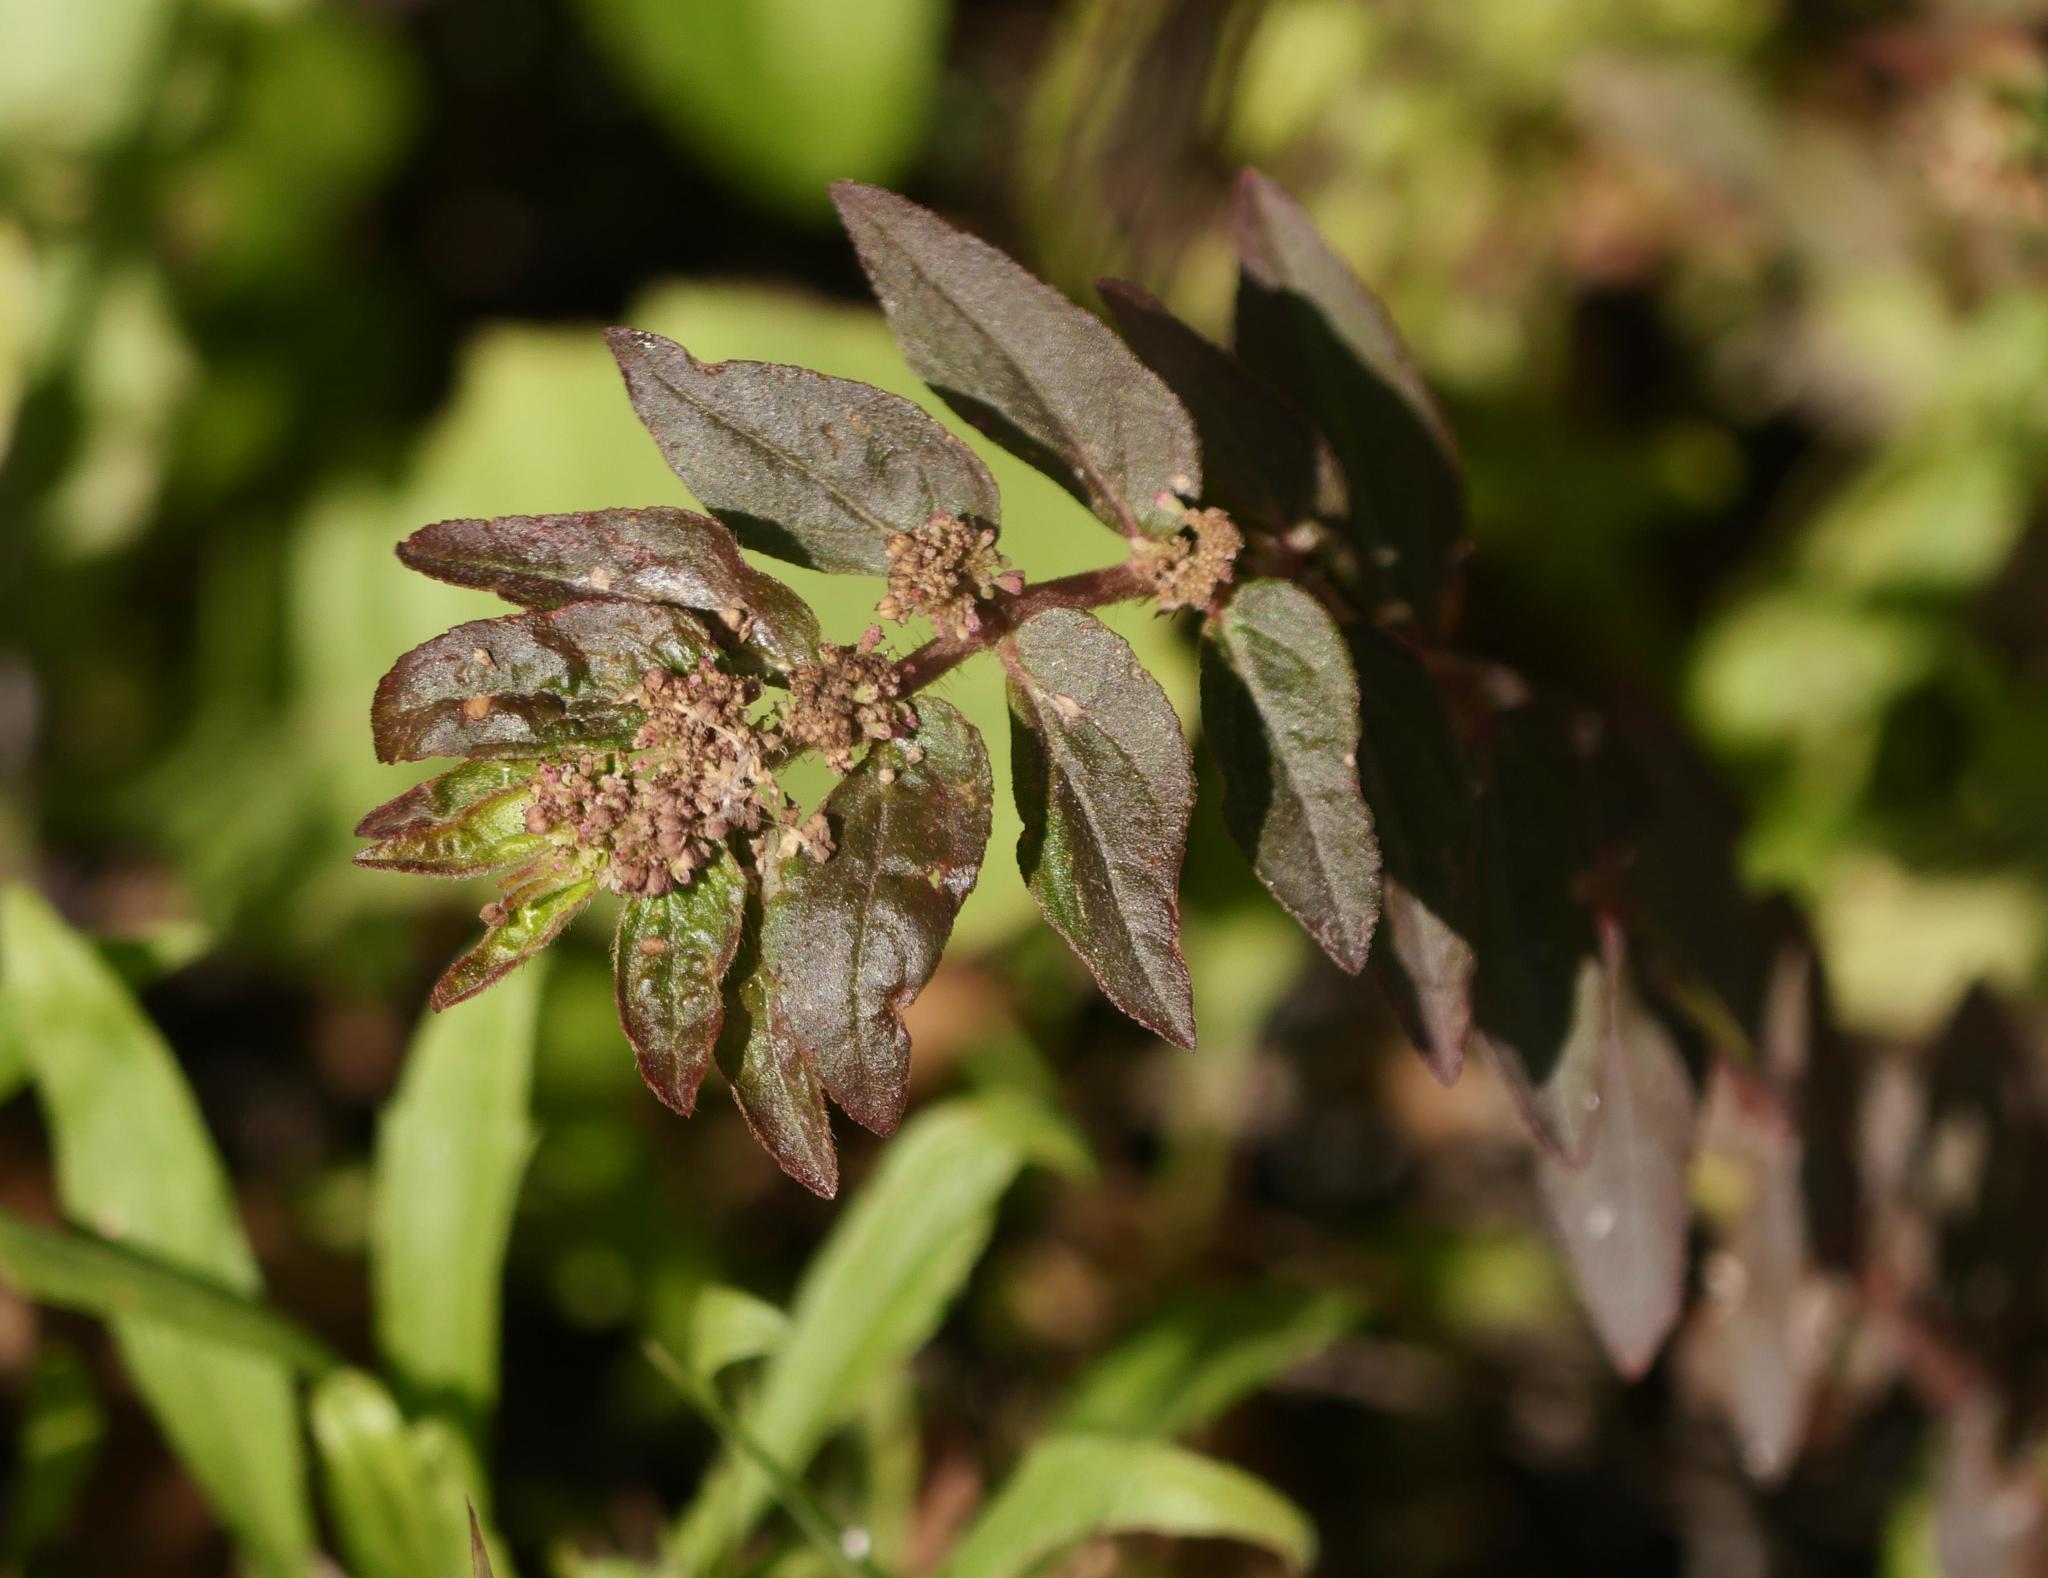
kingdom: Plantae
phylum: Tracheophyta
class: Magnoliopsida
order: Malpighiales
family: Euphorbiaceae
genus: Euphorbia
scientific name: Euphorbia hirta
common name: Pillpod sandmat
